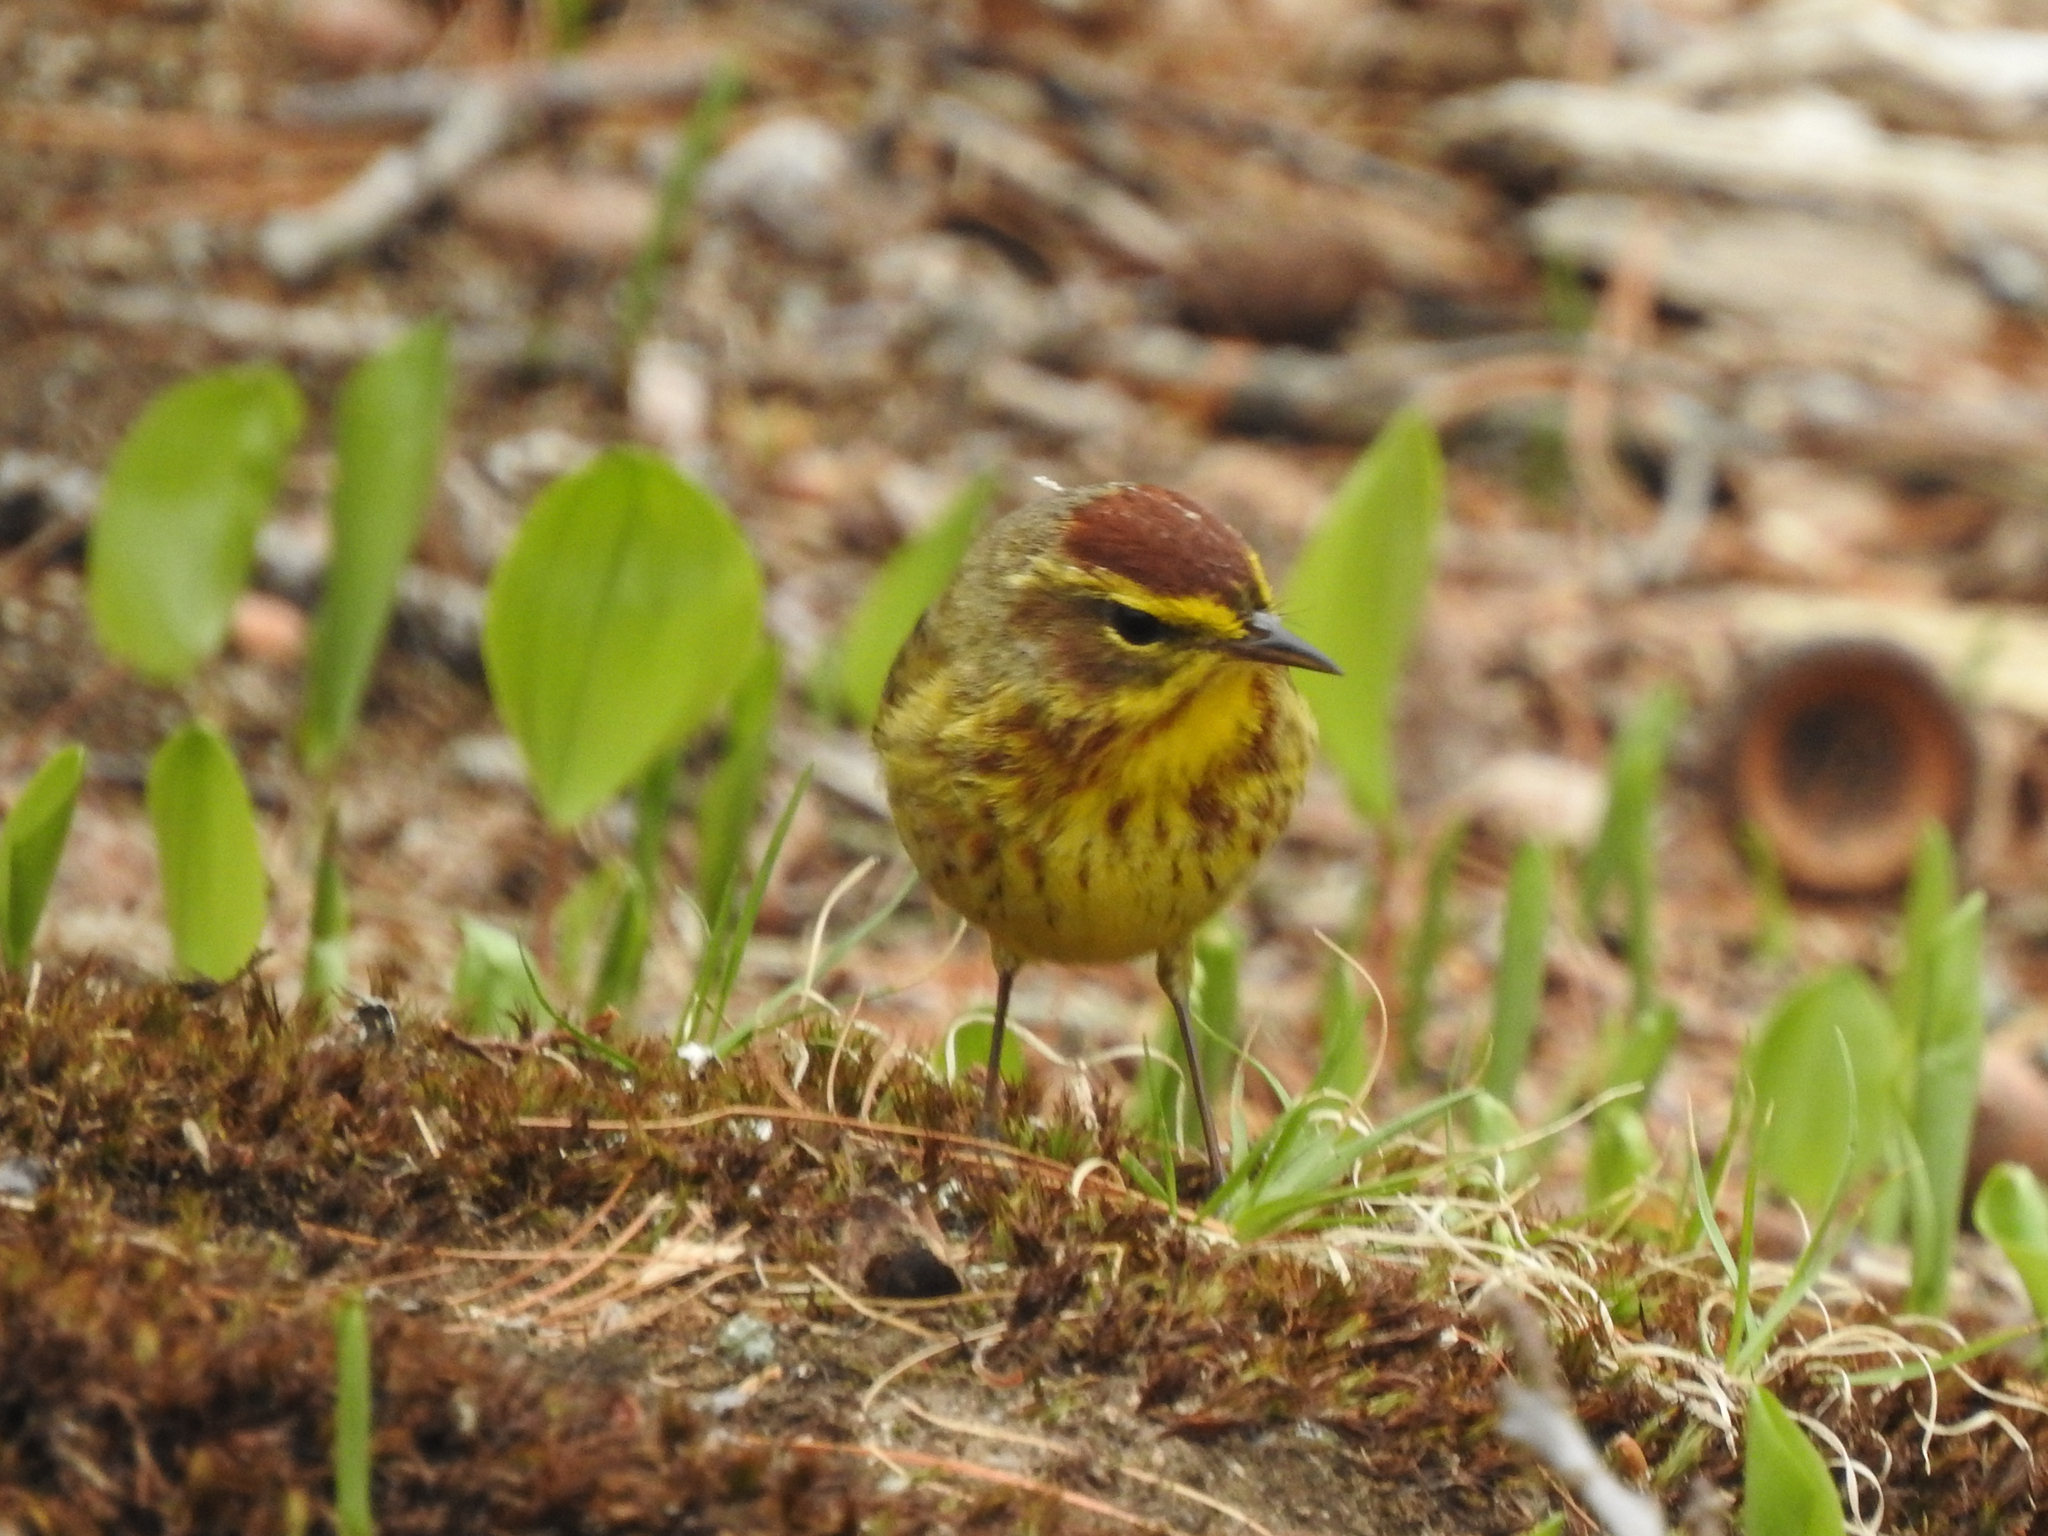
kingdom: Animalia
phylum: Chordata
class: Aves
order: Passeriformes
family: Parulidae
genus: Setophaga
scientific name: Setophaga palmarum
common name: Palm warbler
